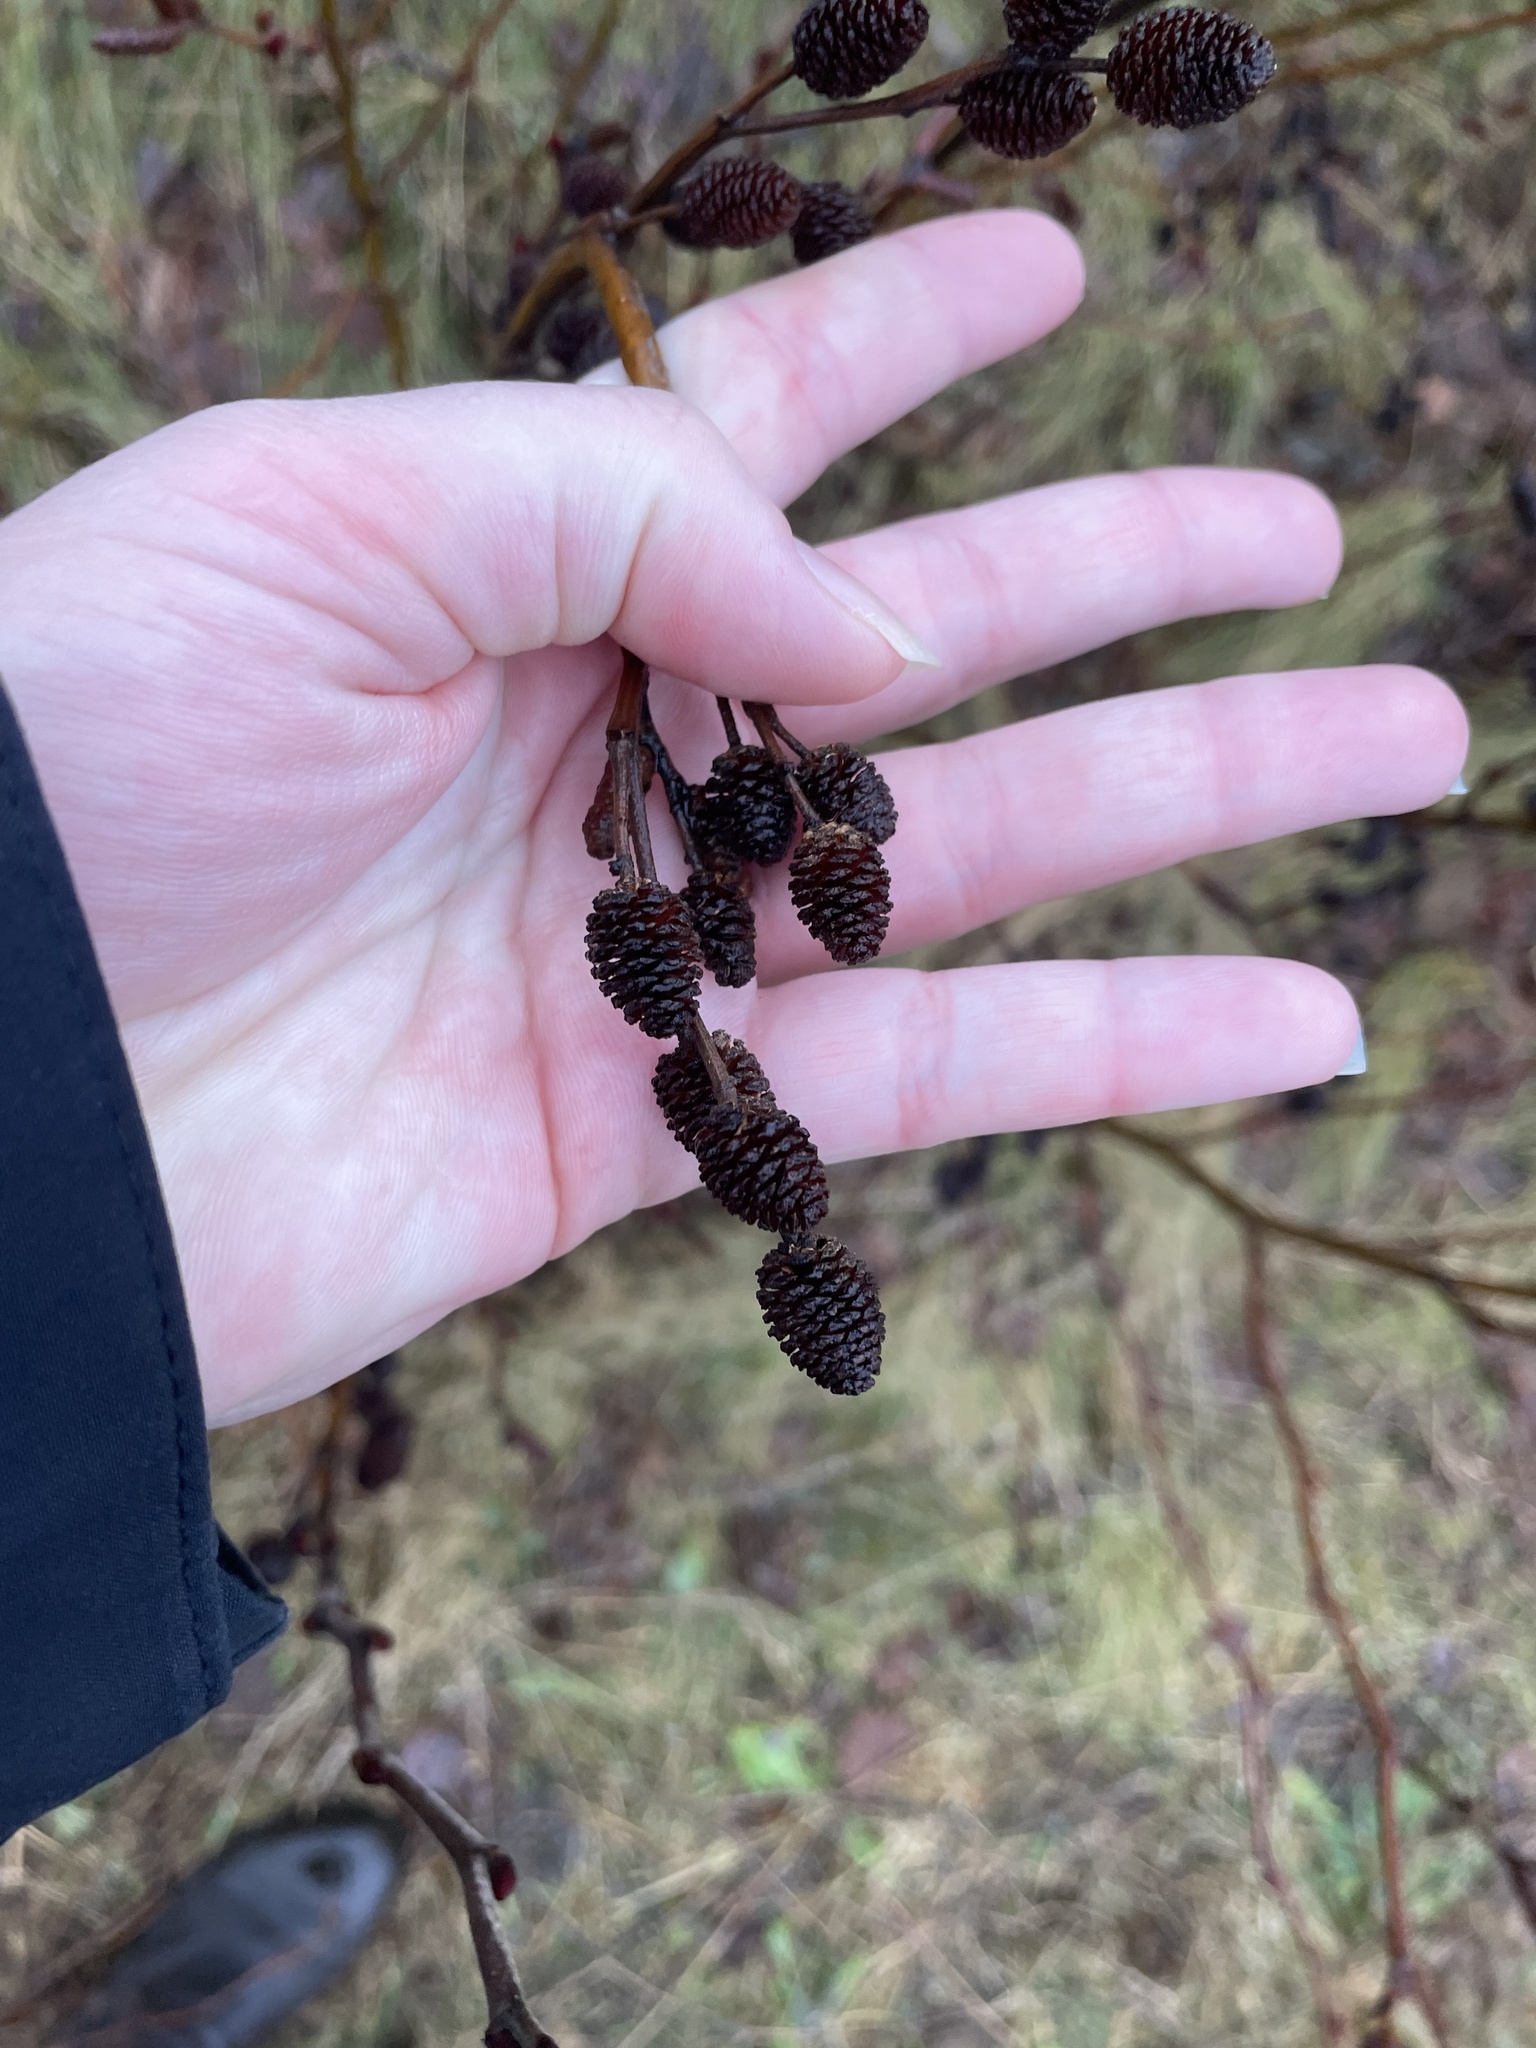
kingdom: Plantae
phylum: Tracheophyta
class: Magnoliopsida
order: Fagales
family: Betulaceae
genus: Alnus
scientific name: Alnus alnobetula
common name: Green alder
